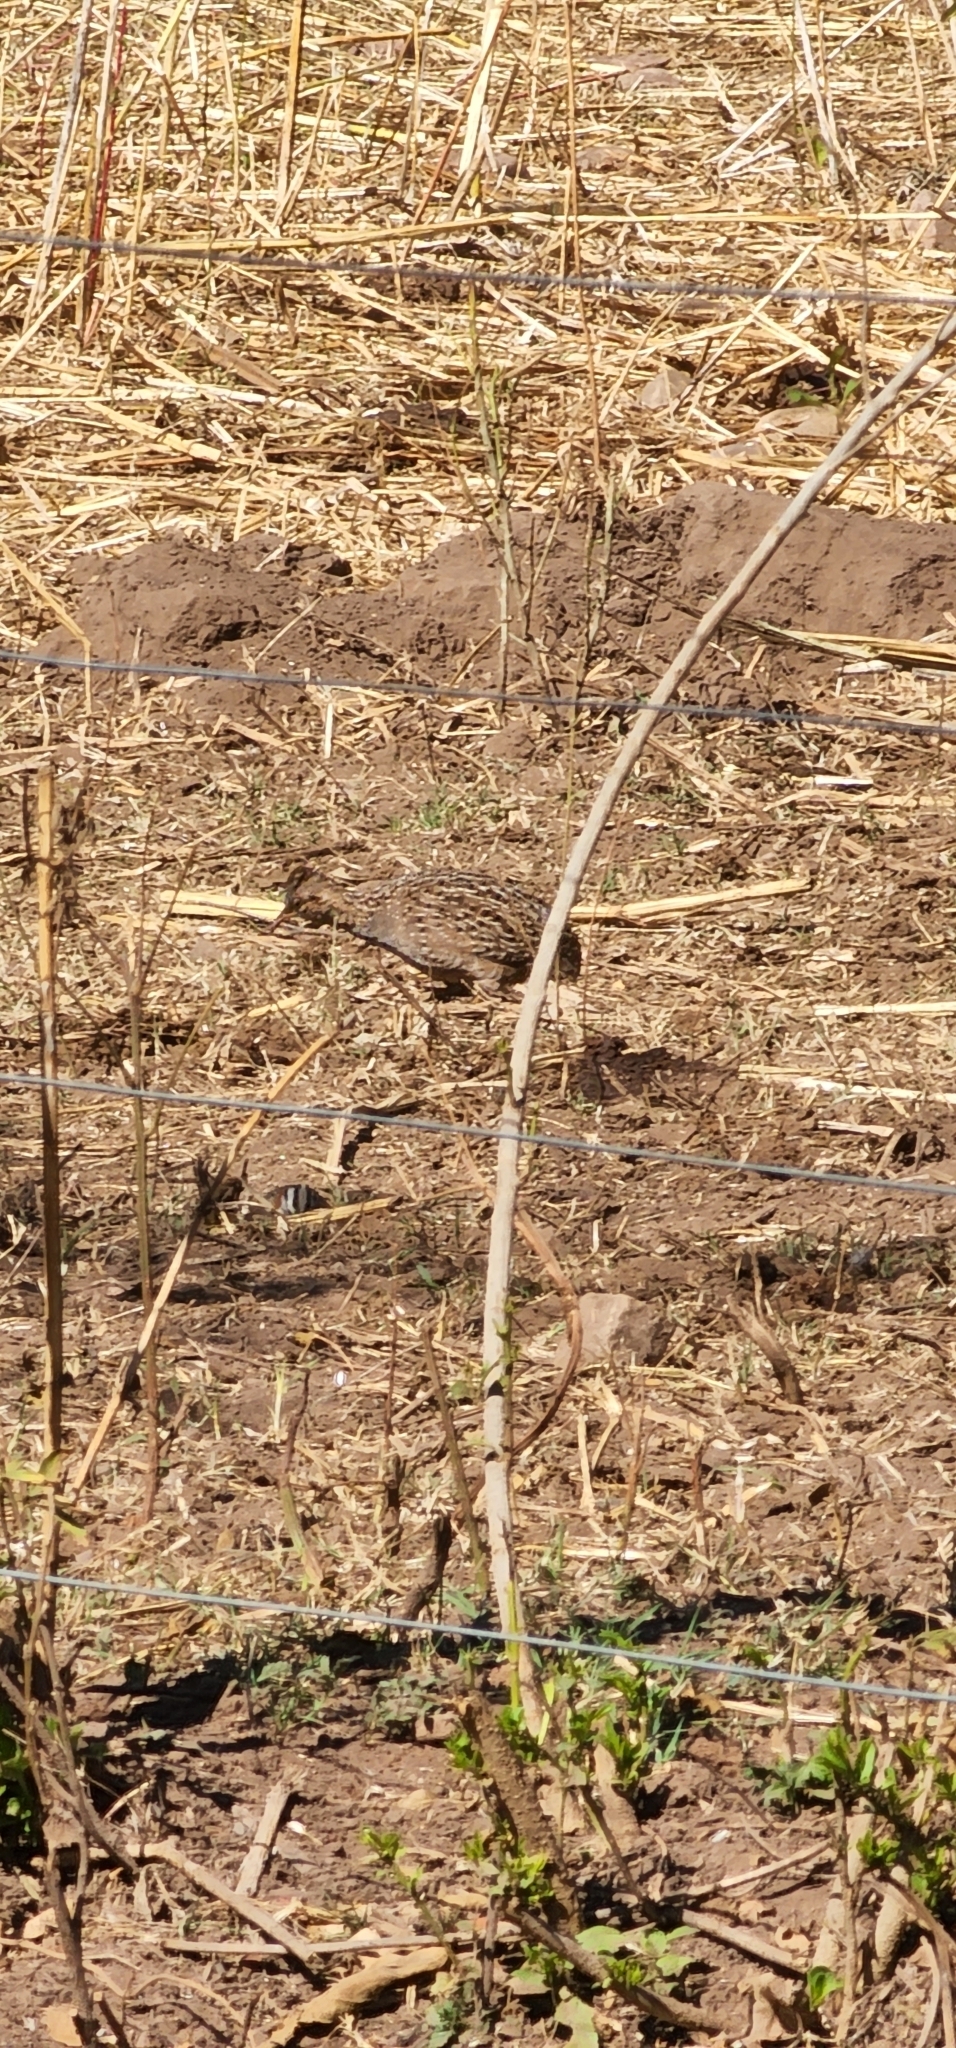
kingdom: Animalia
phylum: Chordata
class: Aves
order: Tinamiformes
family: Tinamidae
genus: Nothoprocta
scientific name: Nothoprocta pentlandii
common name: Andean tinamou
